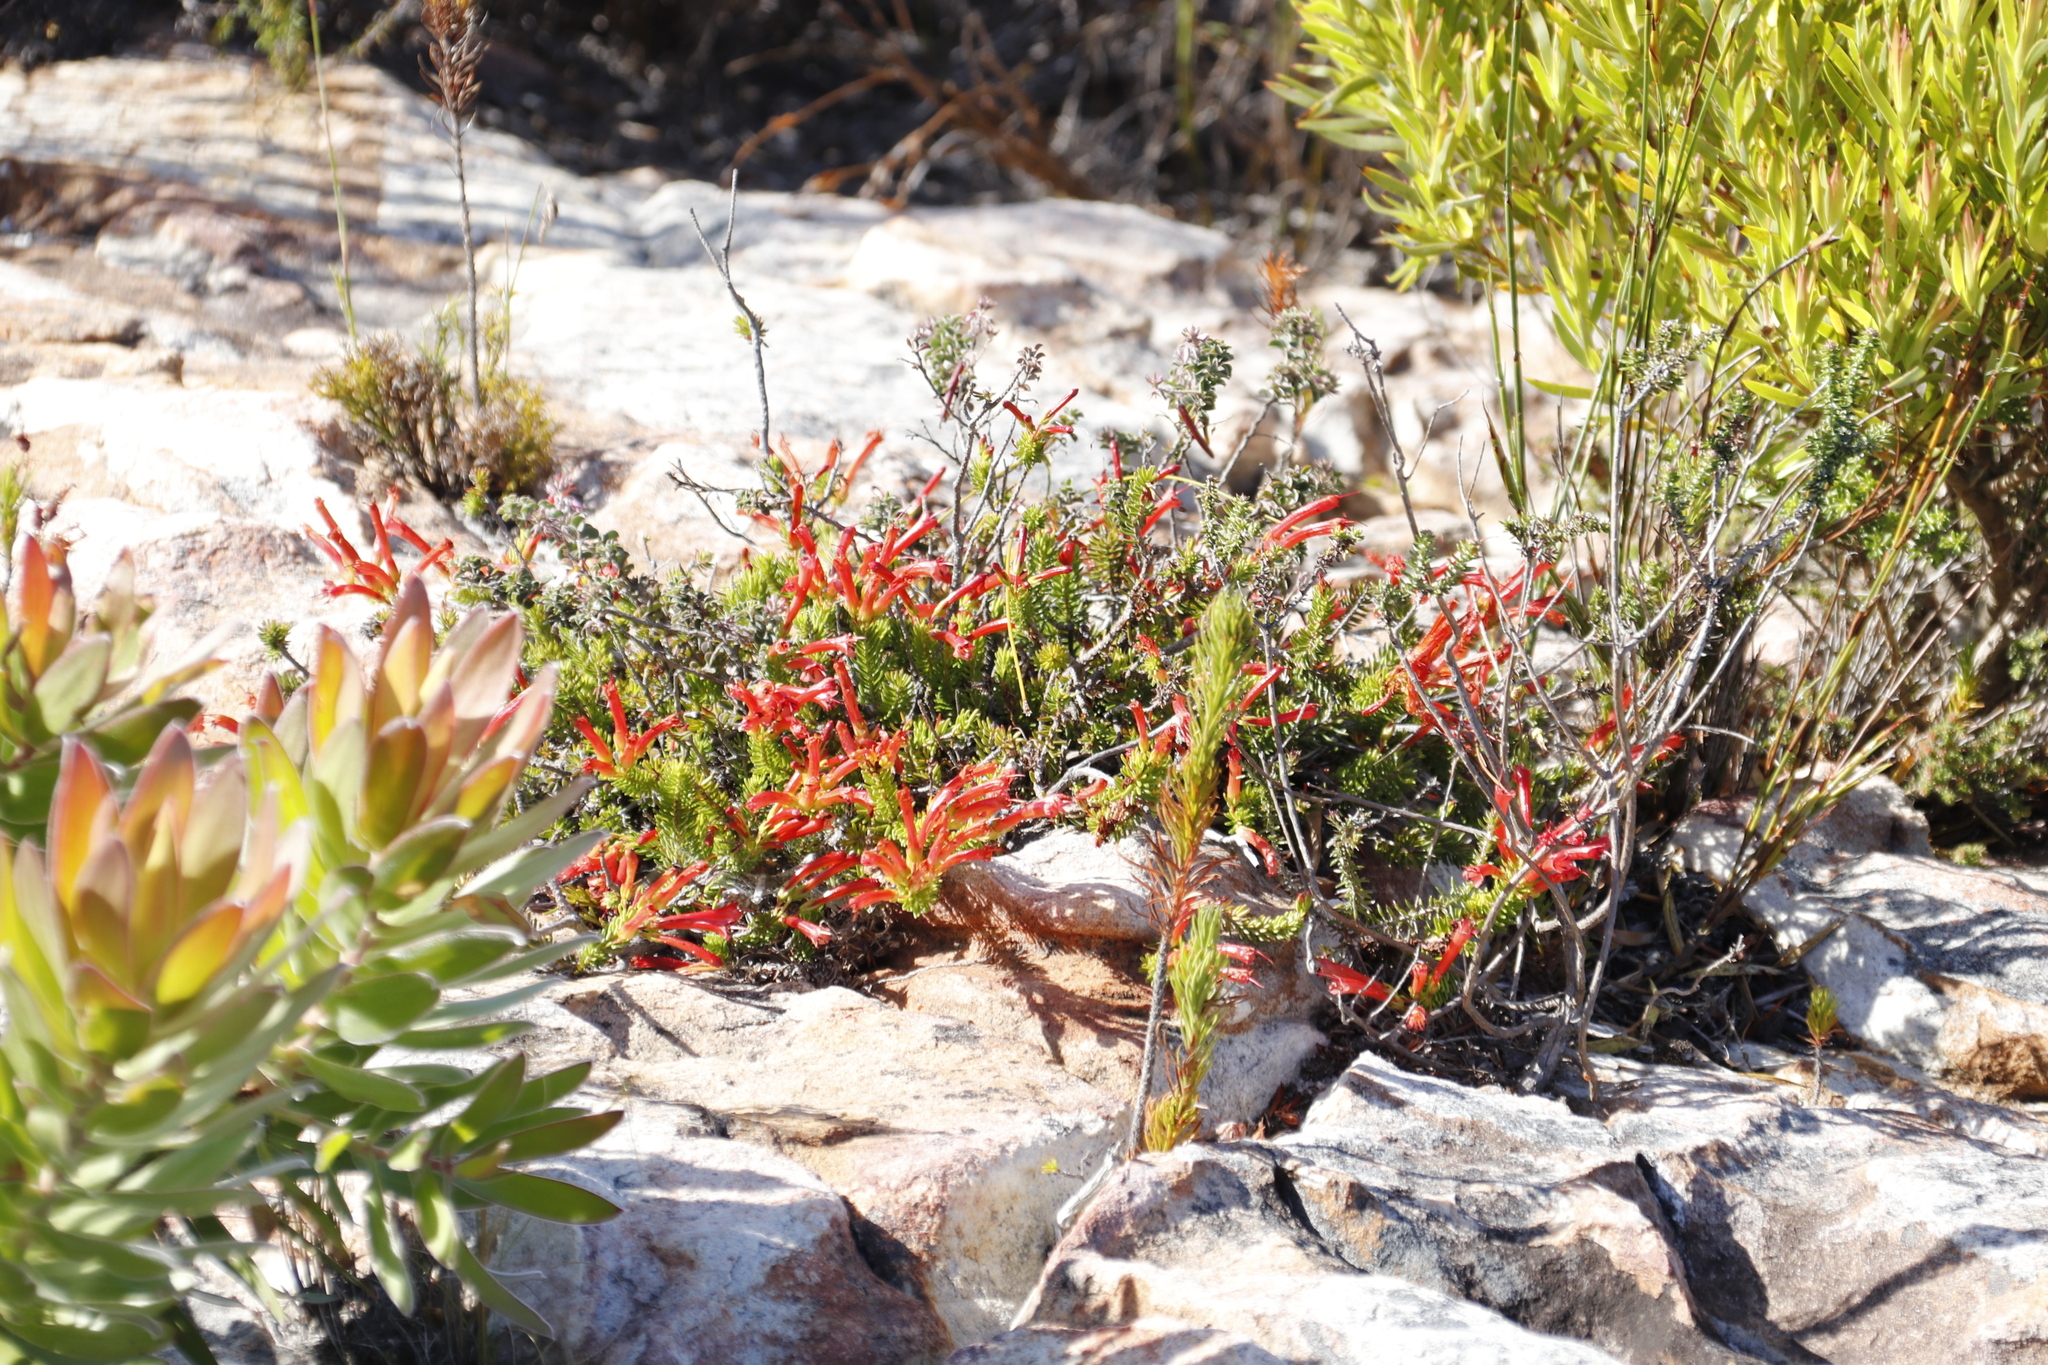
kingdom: Plantae
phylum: Tracheophyta
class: Magnoliopsida
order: Ericales
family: Ericaceae
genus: Erica
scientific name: Erica nevillei
